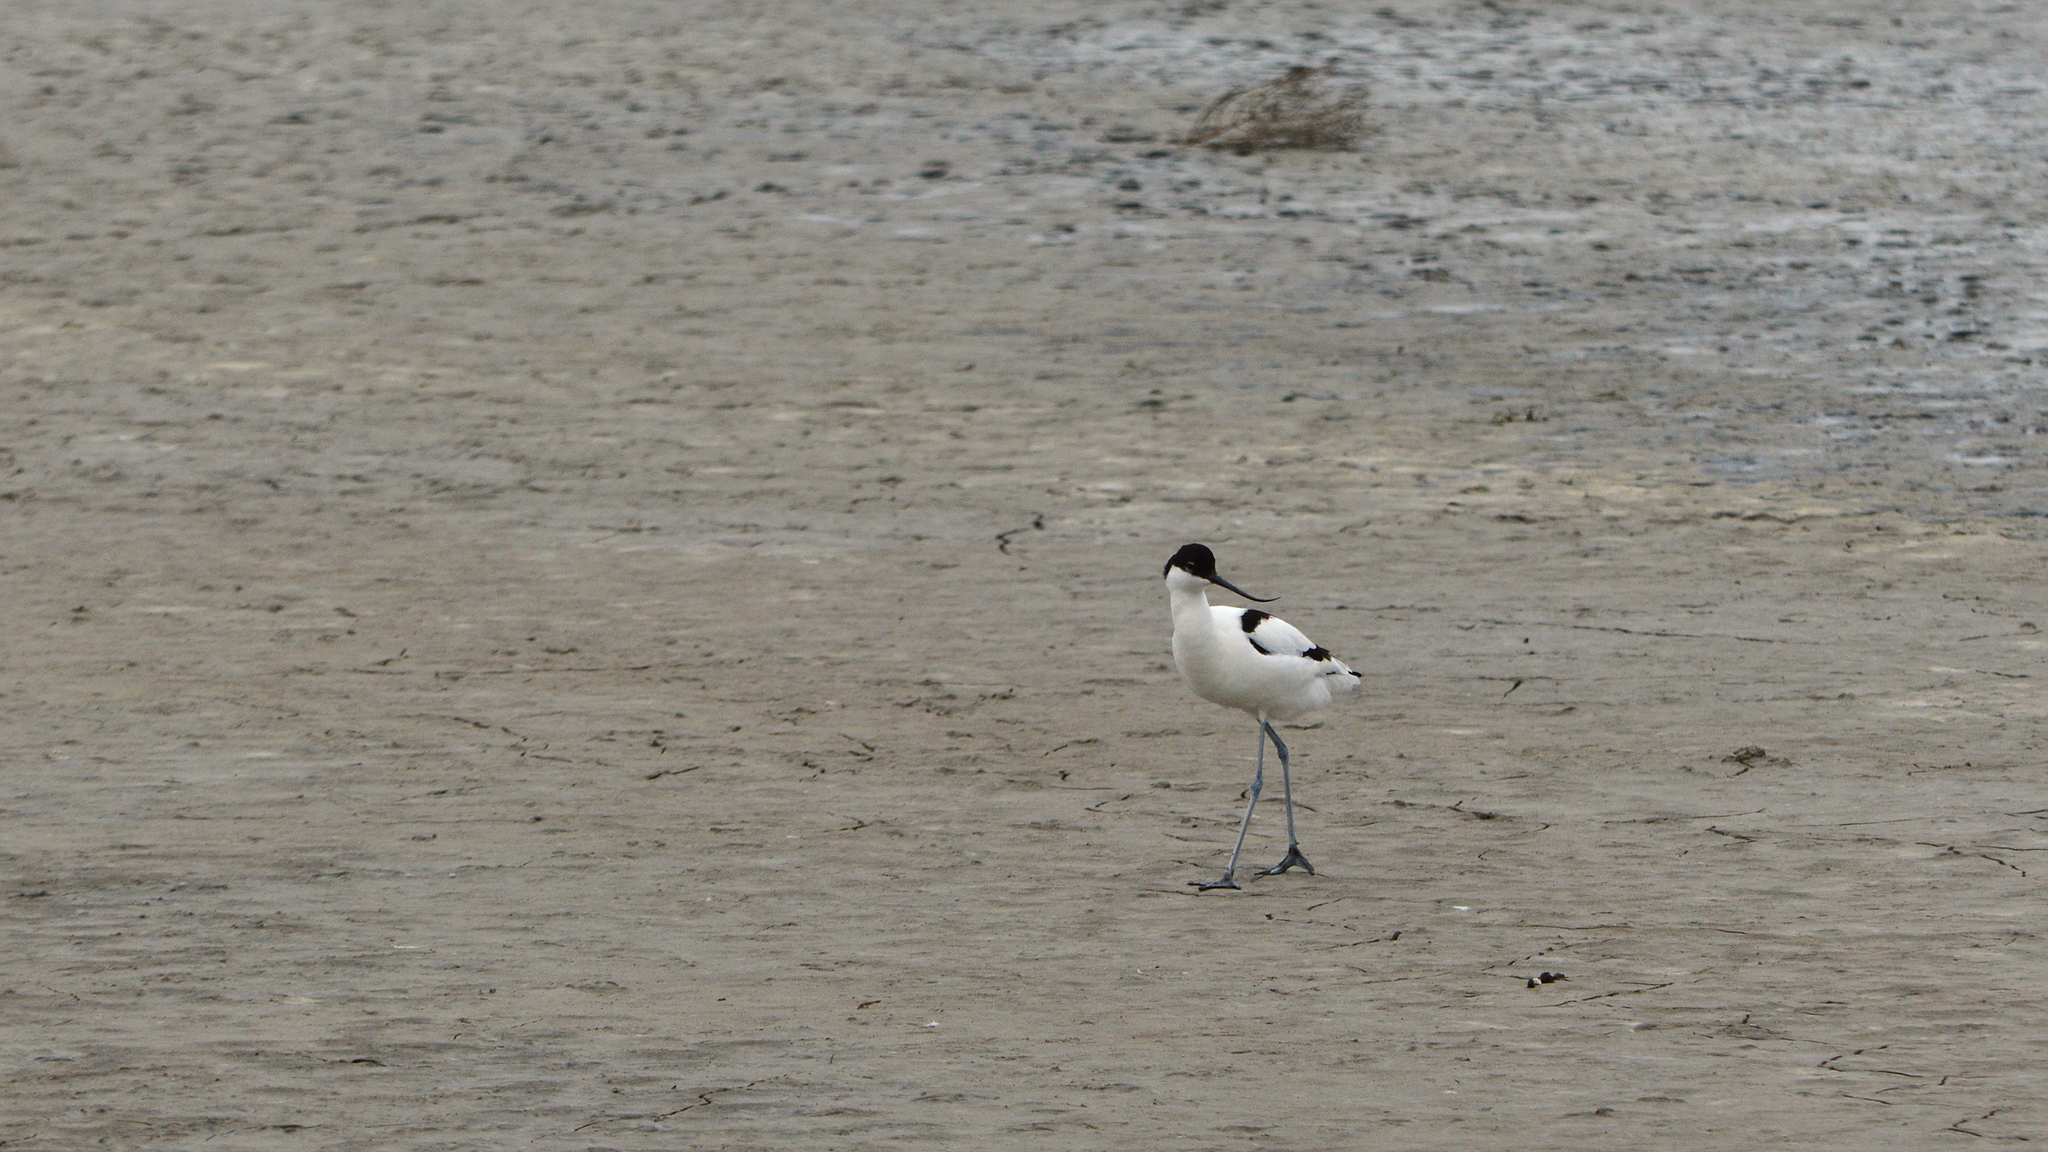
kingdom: Animalia
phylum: Chordata
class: Aves
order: Charadriiformes
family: Recurvirostridae
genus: Recurvirostra
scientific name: Recurvirostra avosetta
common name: Pied avocet
